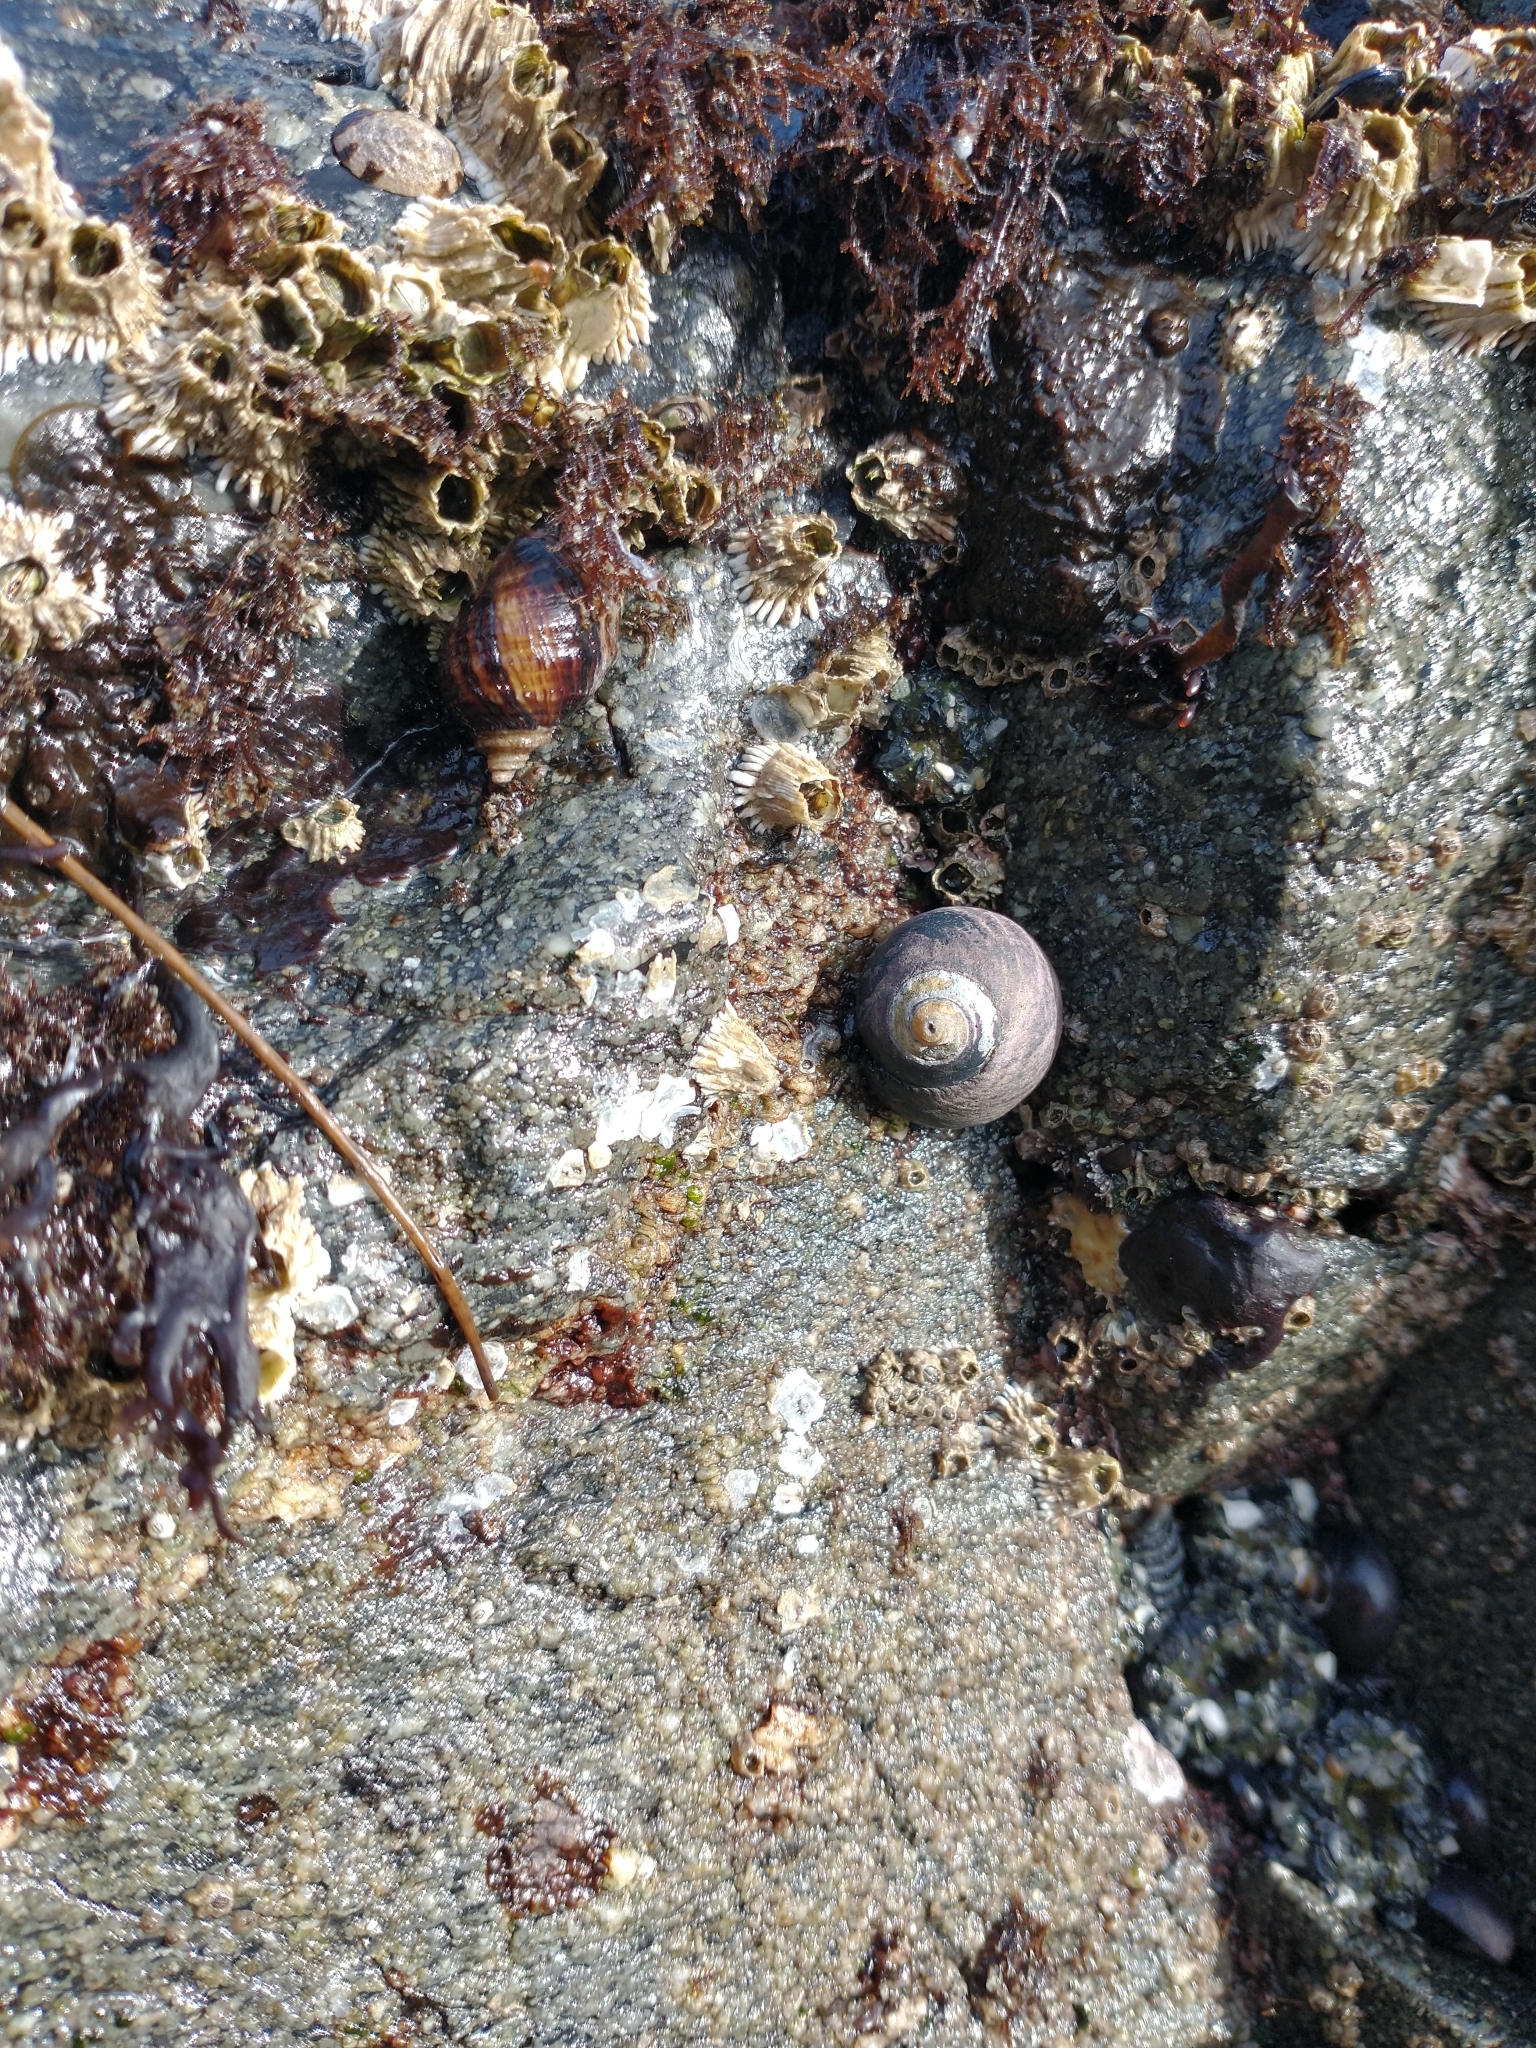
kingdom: Animalia
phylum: Mollusca
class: Gastropoda
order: Trochida
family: Tegulidae
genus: Tegula
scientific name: Tegula funebralis
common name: Black tegula
